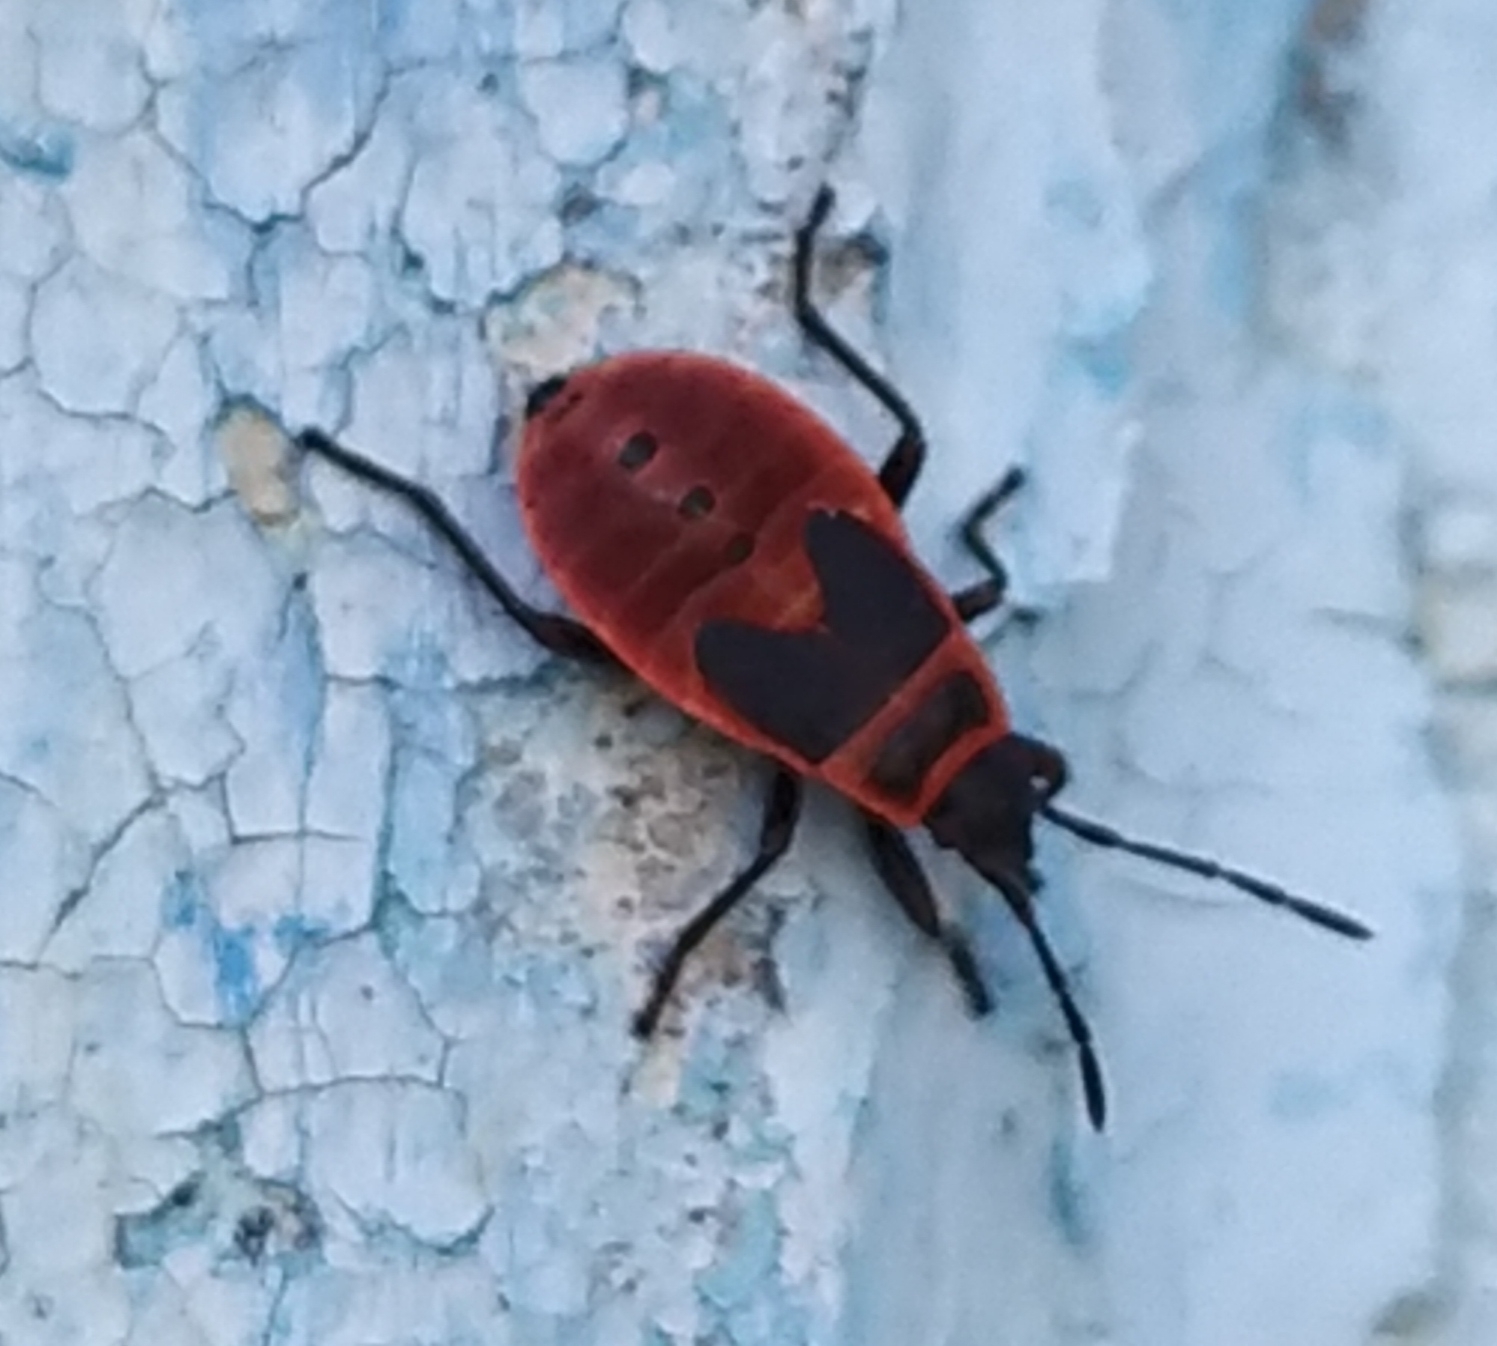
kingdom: Animalia
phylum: Arthropoda
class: Insecta
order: Hemiptera
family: Pyrrhocoridae
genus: Pyrrhocoris
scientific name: Pyrrhocoris apterus
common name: Firebug
